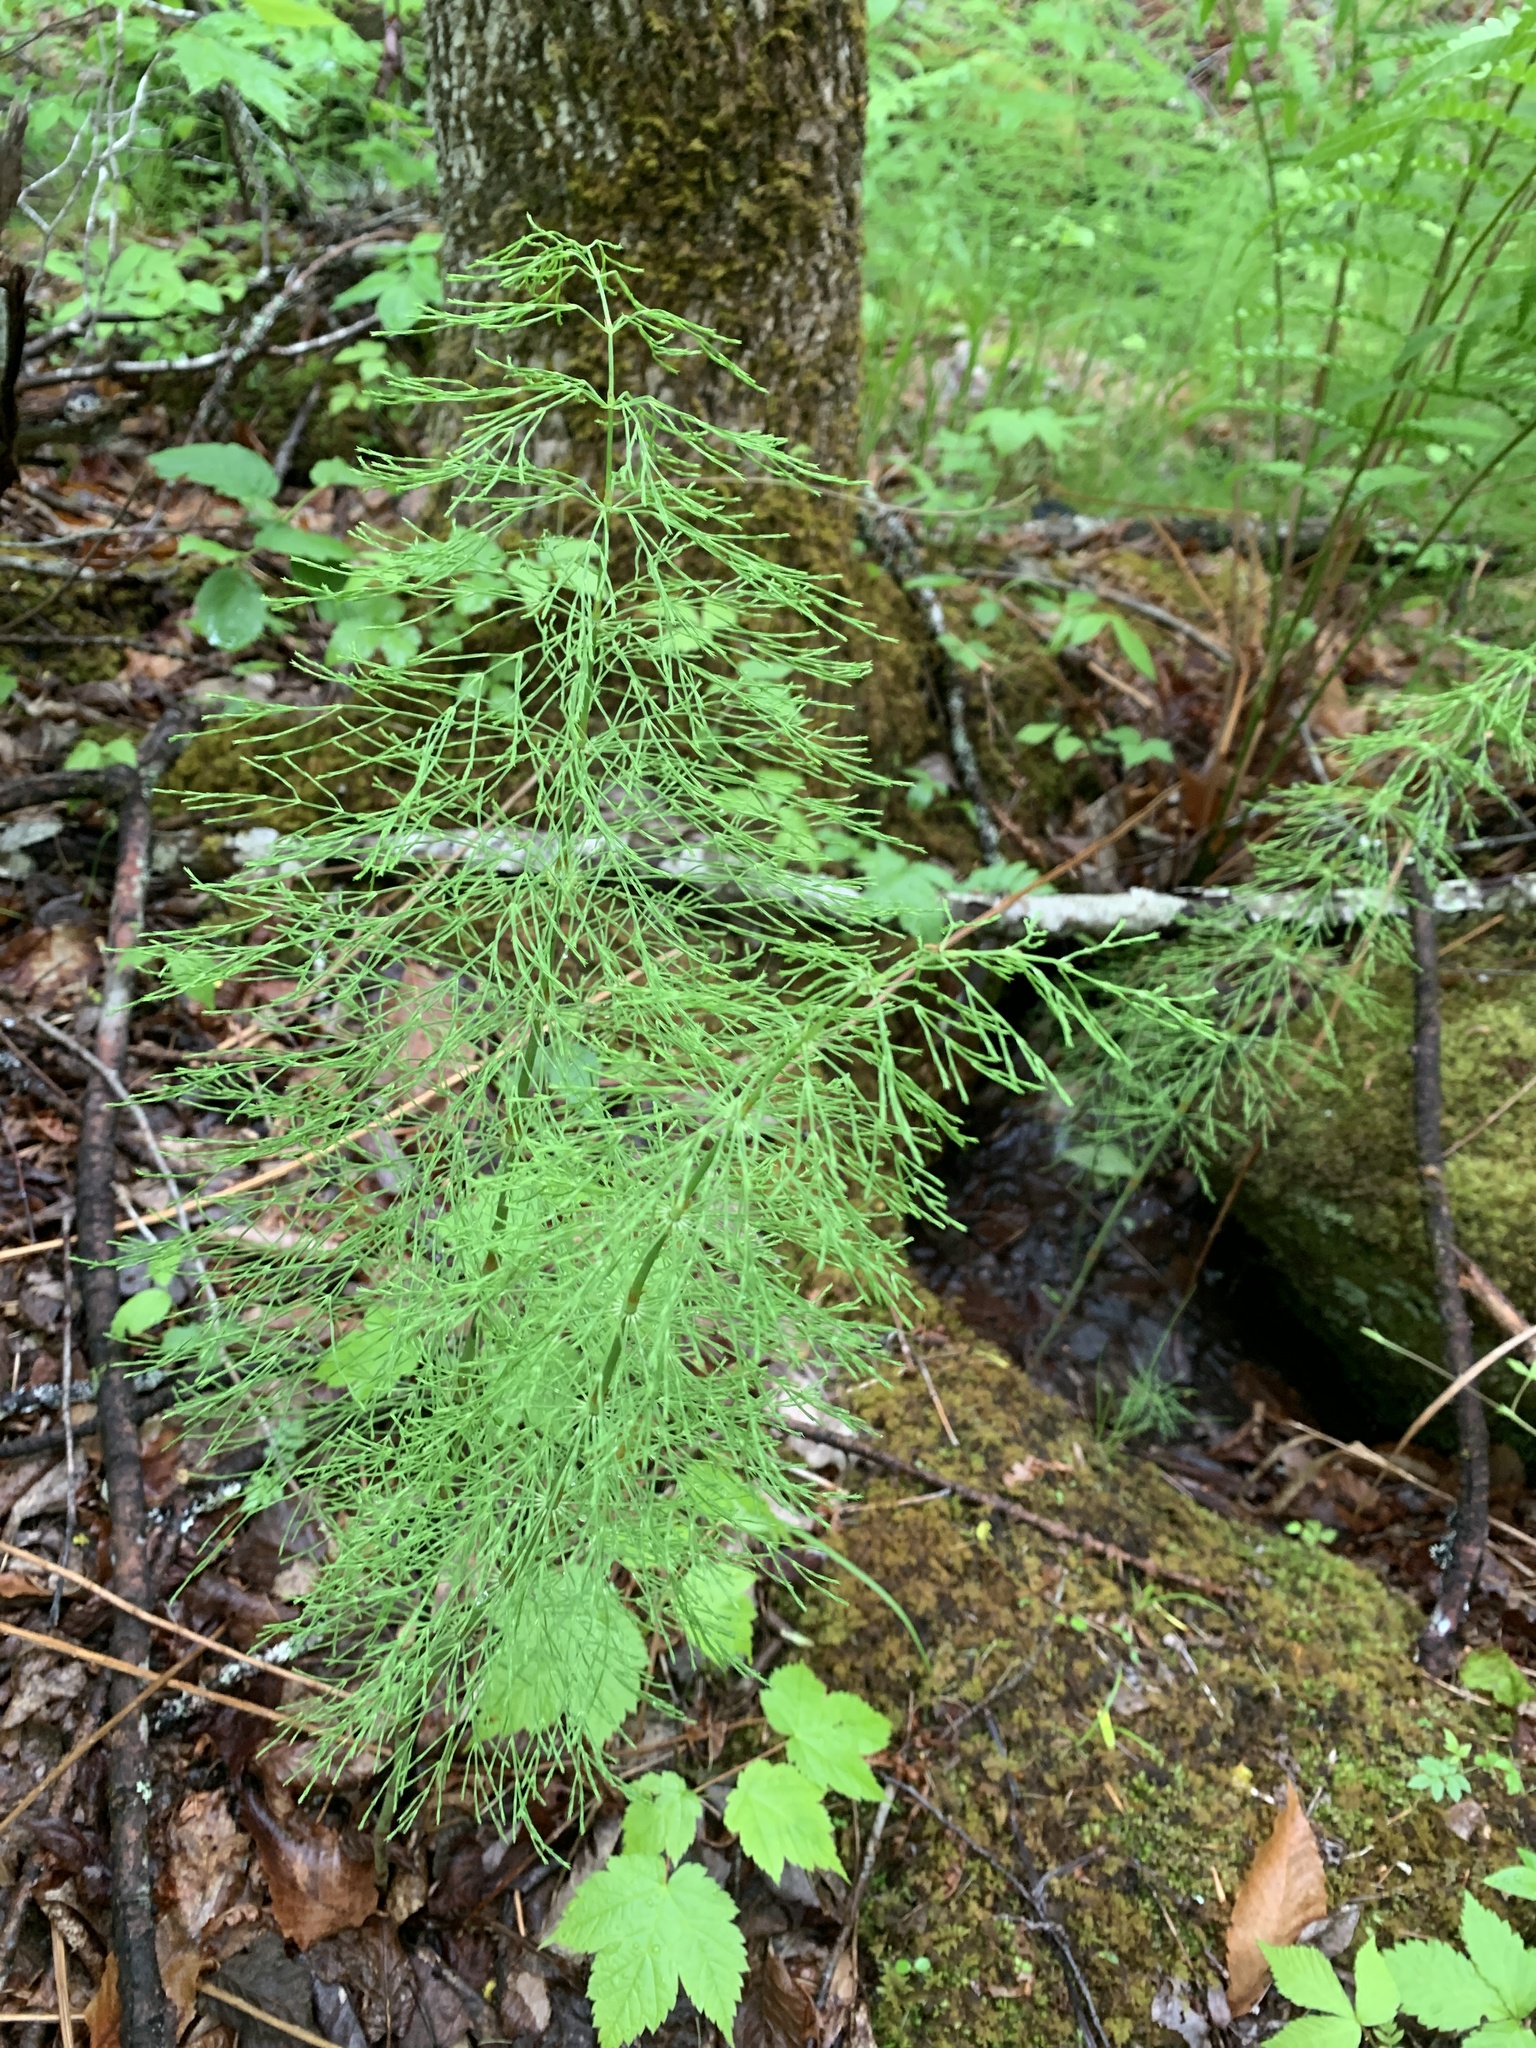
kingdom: Plantae
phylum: Tracheophyta
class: Polypodiopsida
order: Equisetales
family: Equisetaceae
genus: Equisetum
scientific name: Equisetum sylvaticum
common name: Wood horsetail
